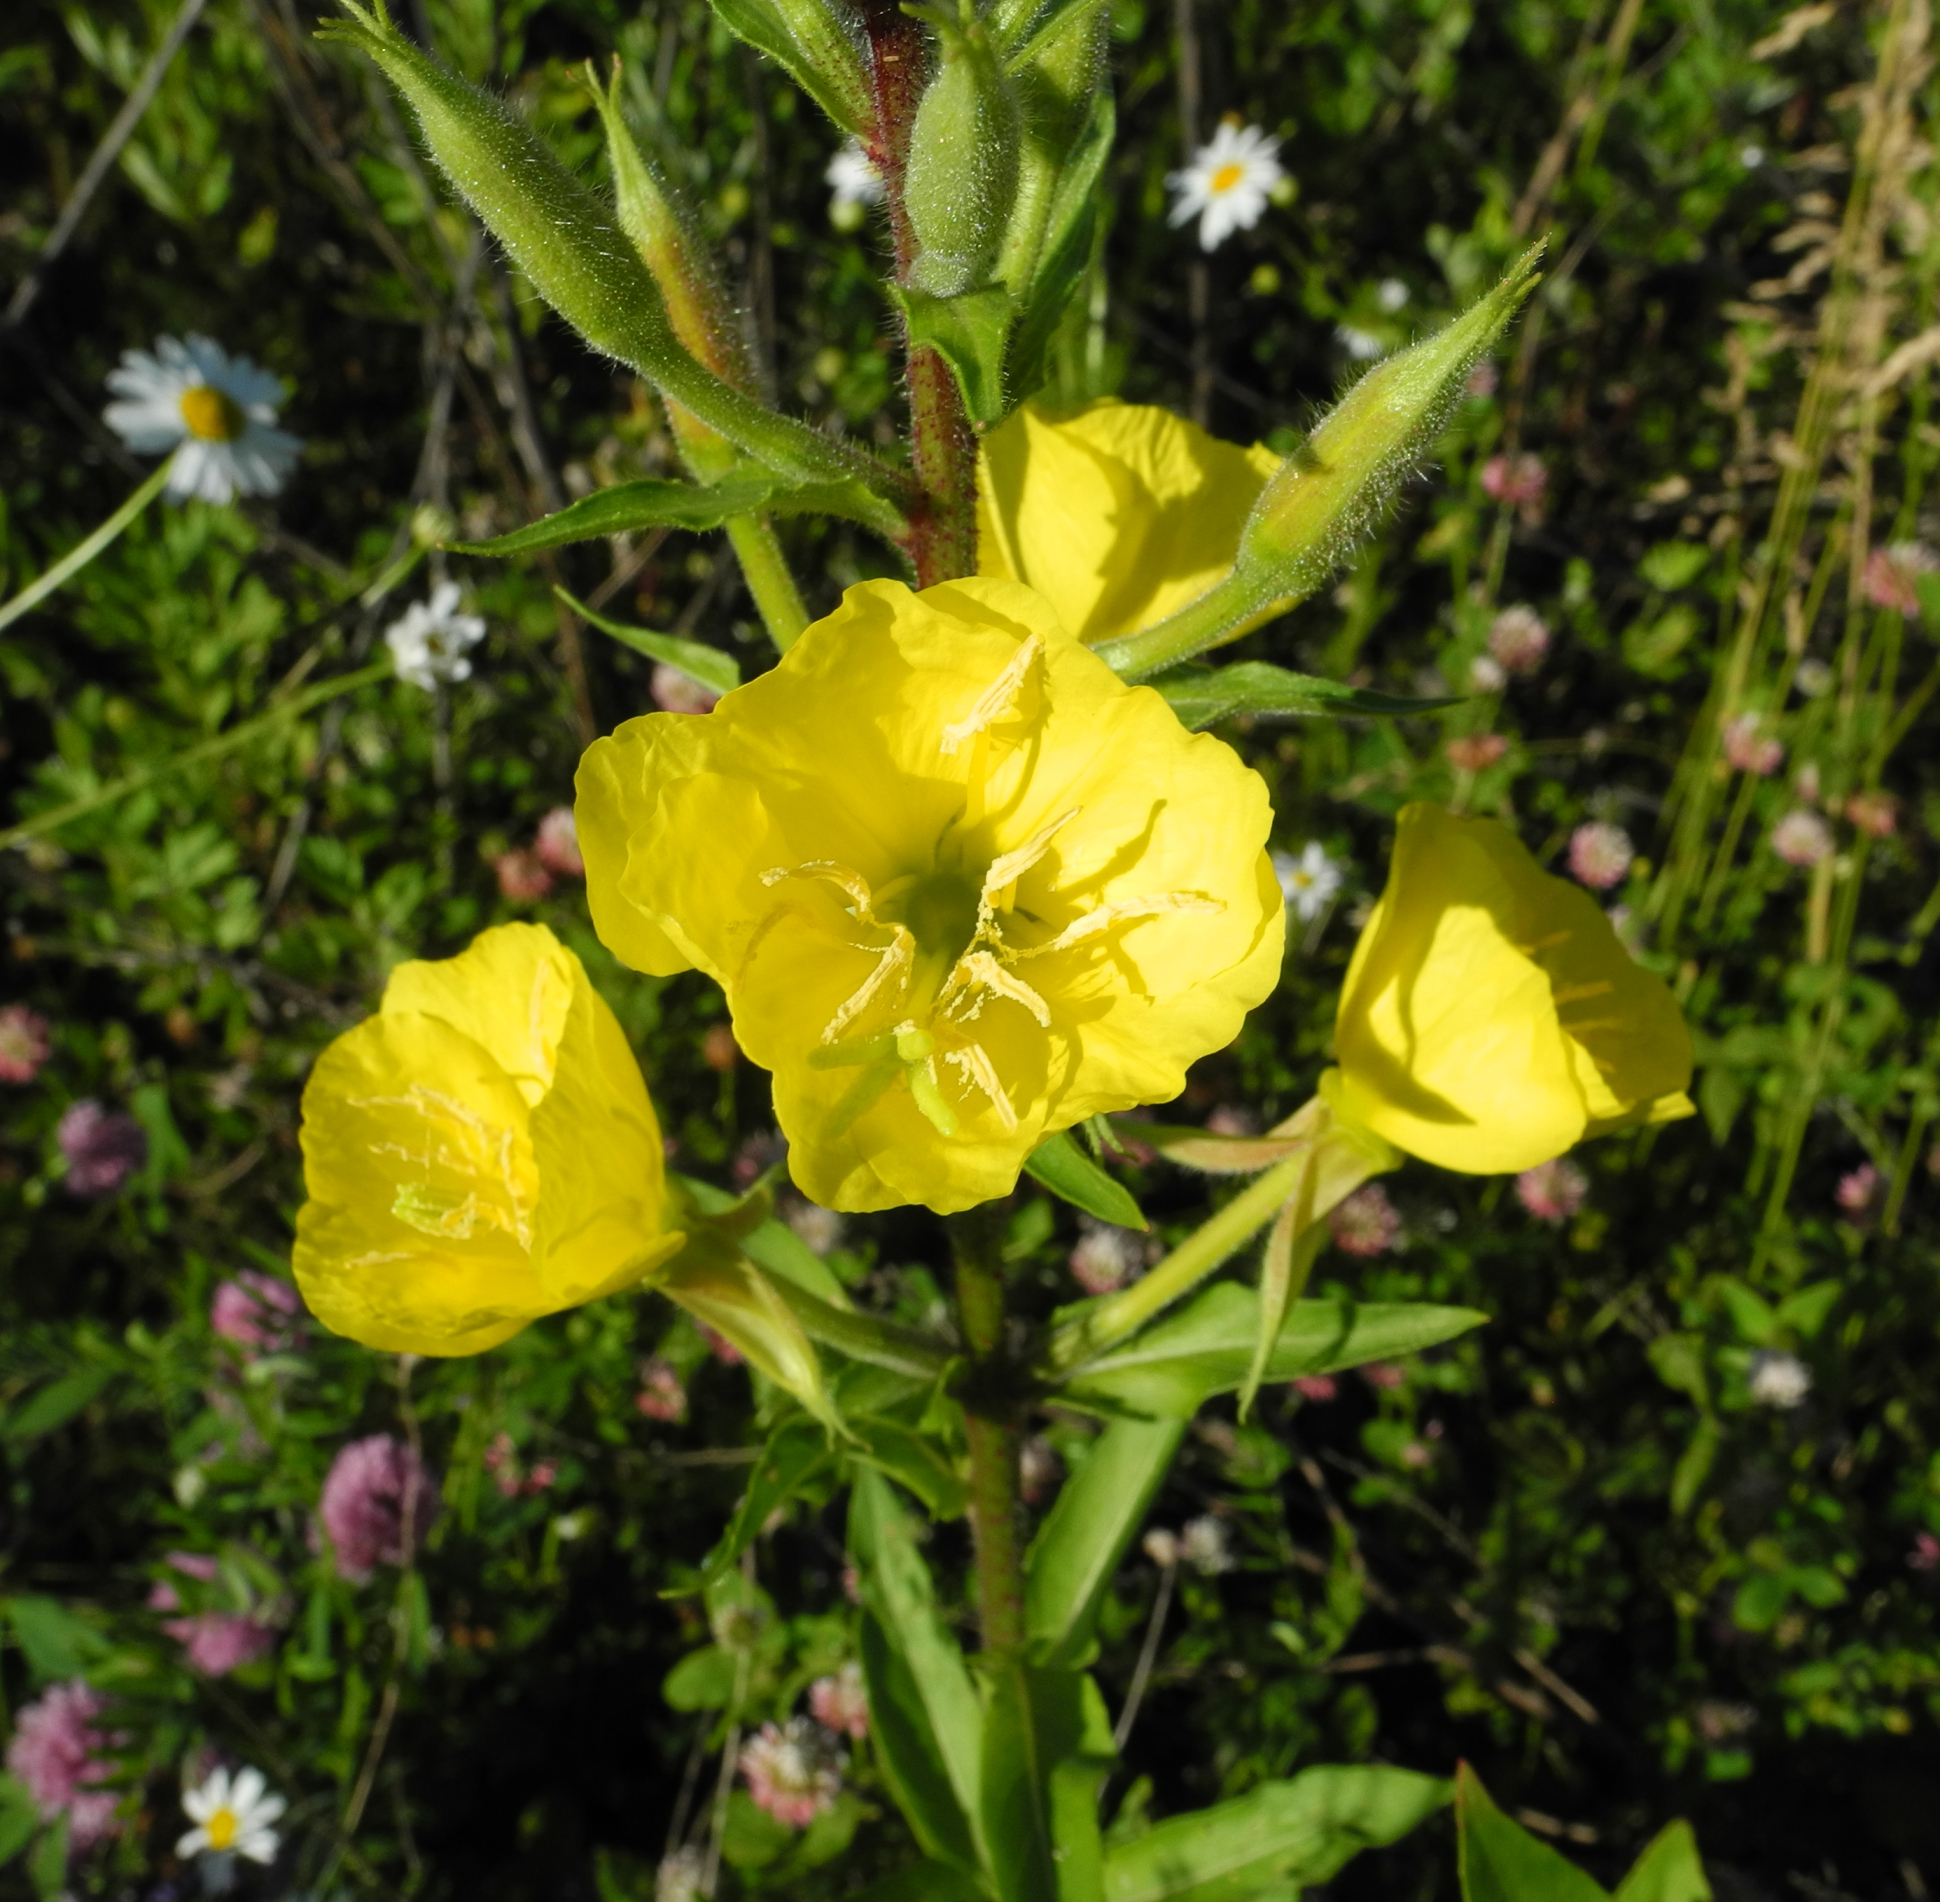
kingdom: Plantae
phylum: Tracheophyta
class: Magnoliopsida
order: Myrtales
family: Onagraceae
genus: Oenothera
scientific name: Oenothera rubricaulis
